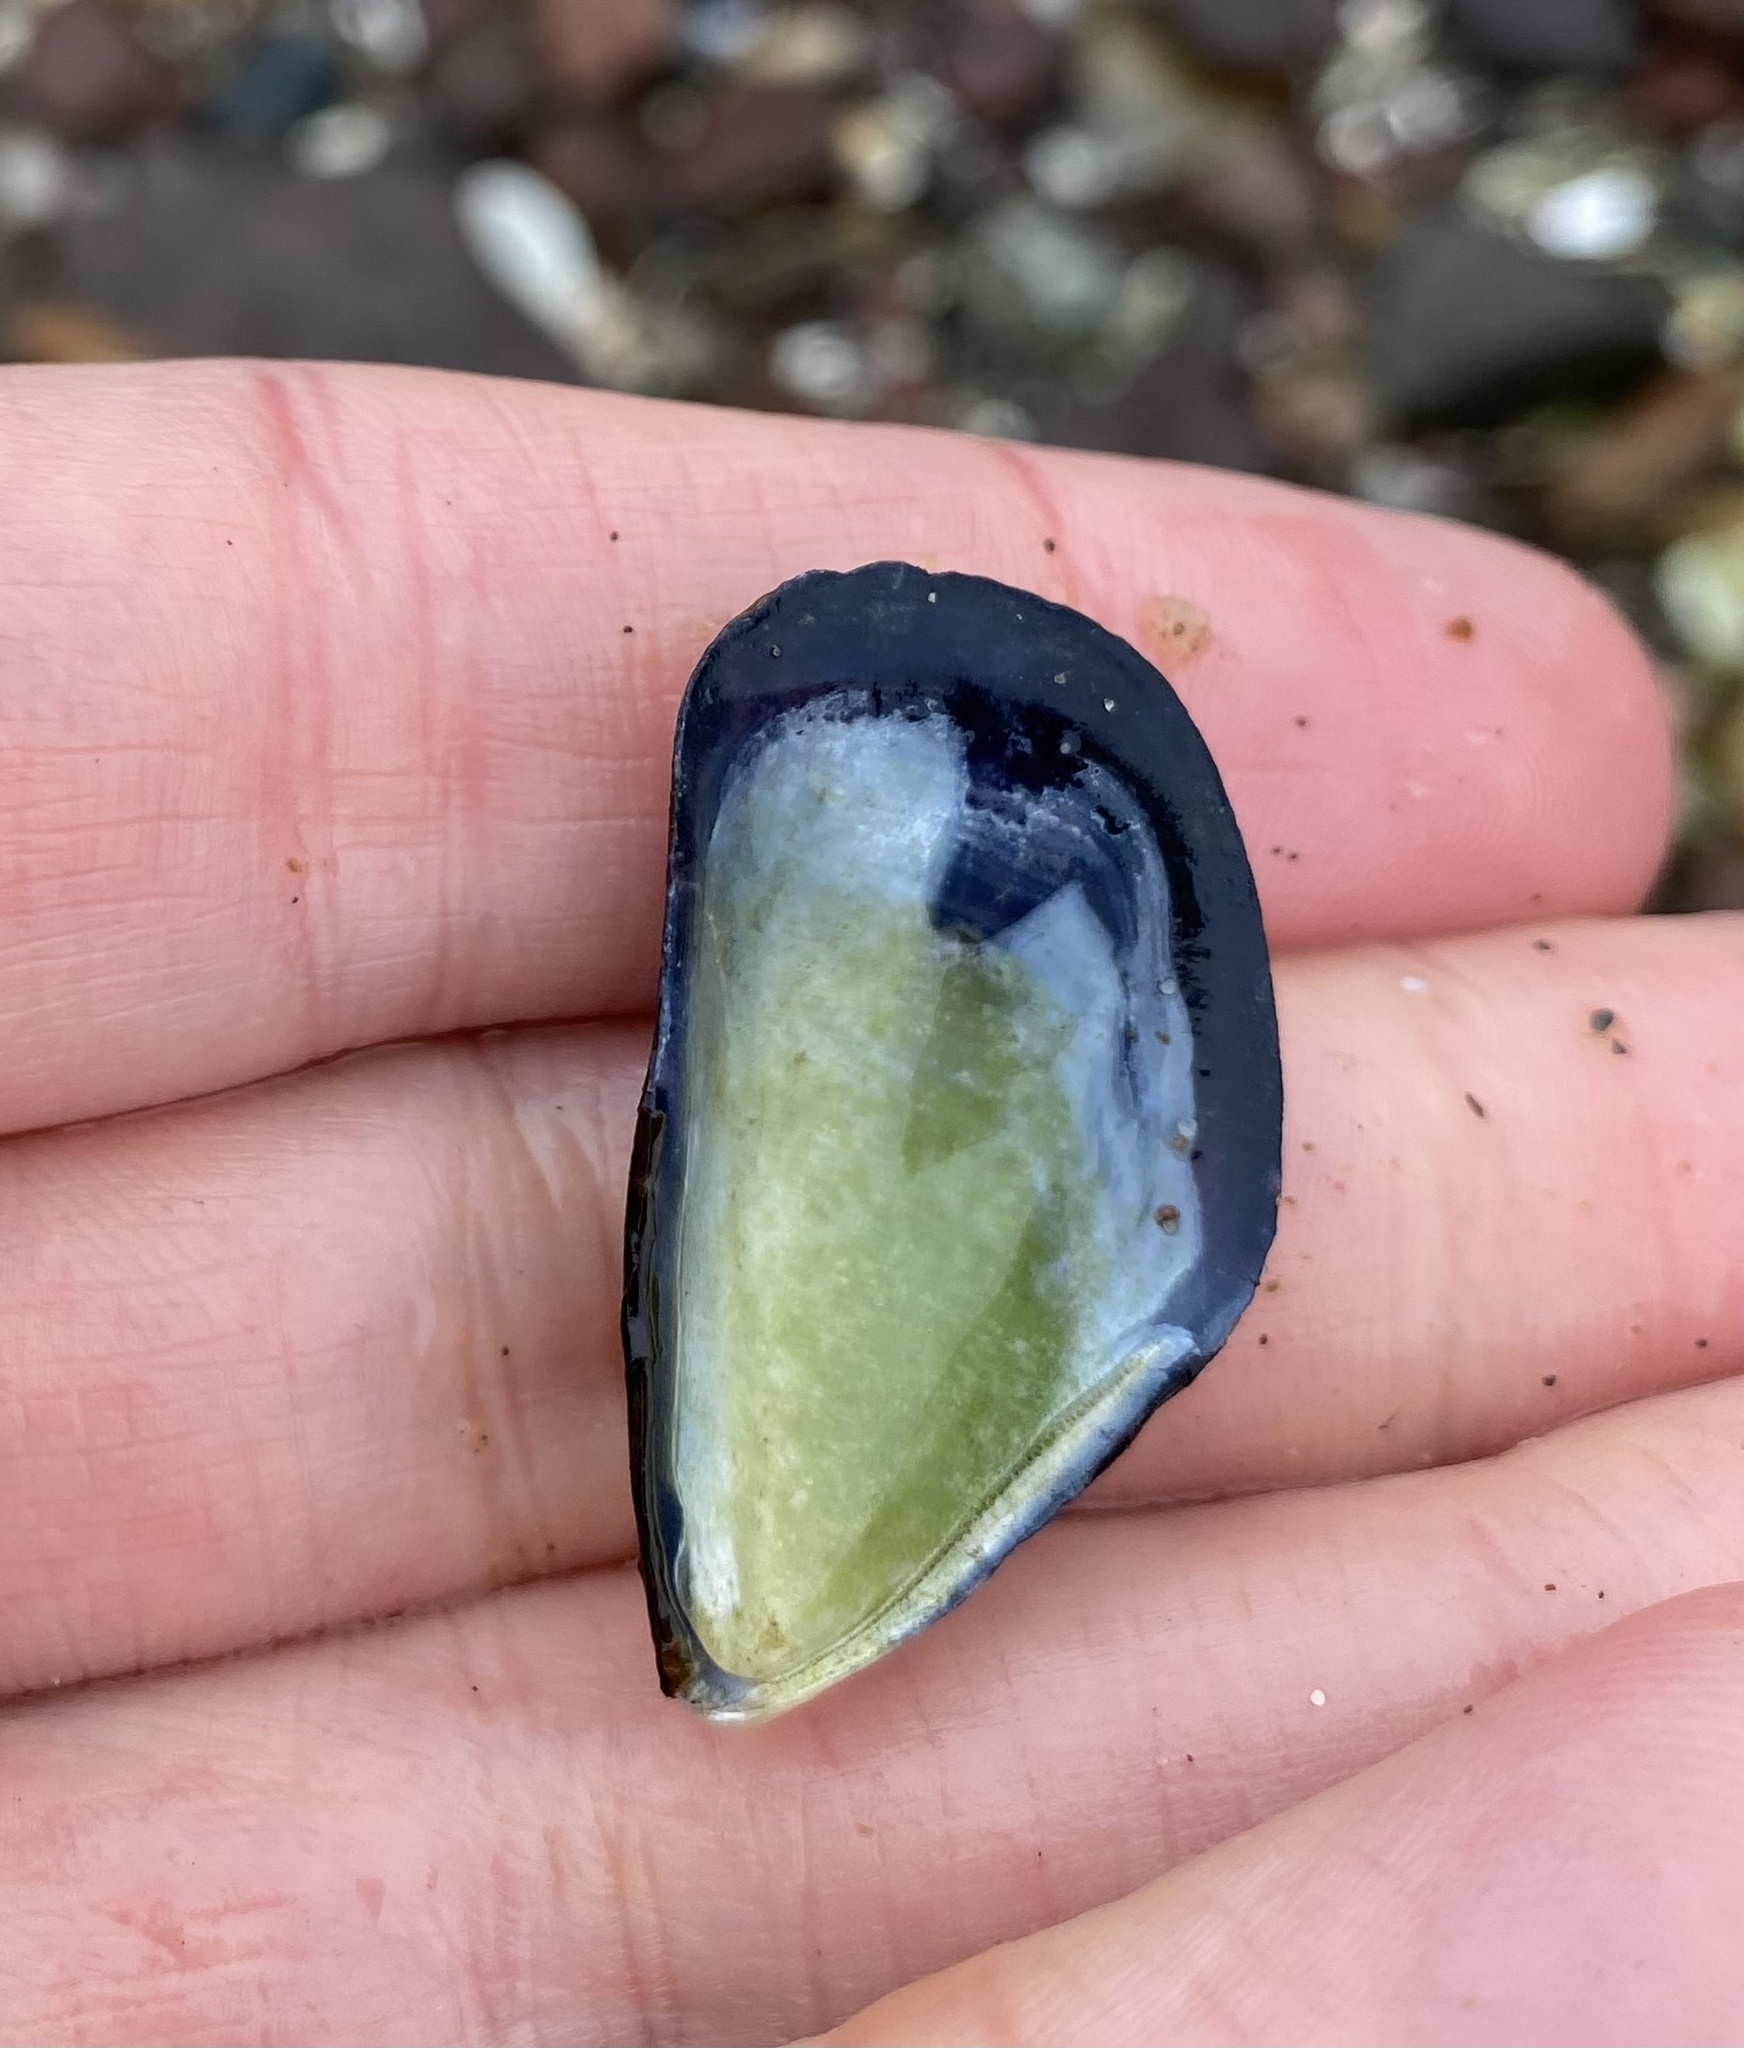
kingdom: Animalia
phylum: Mollusca
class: Bivalvia
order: Mytilida
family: Mytilidae
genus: Mytilus
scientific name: Mytilus edulis
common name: Blue mussel
